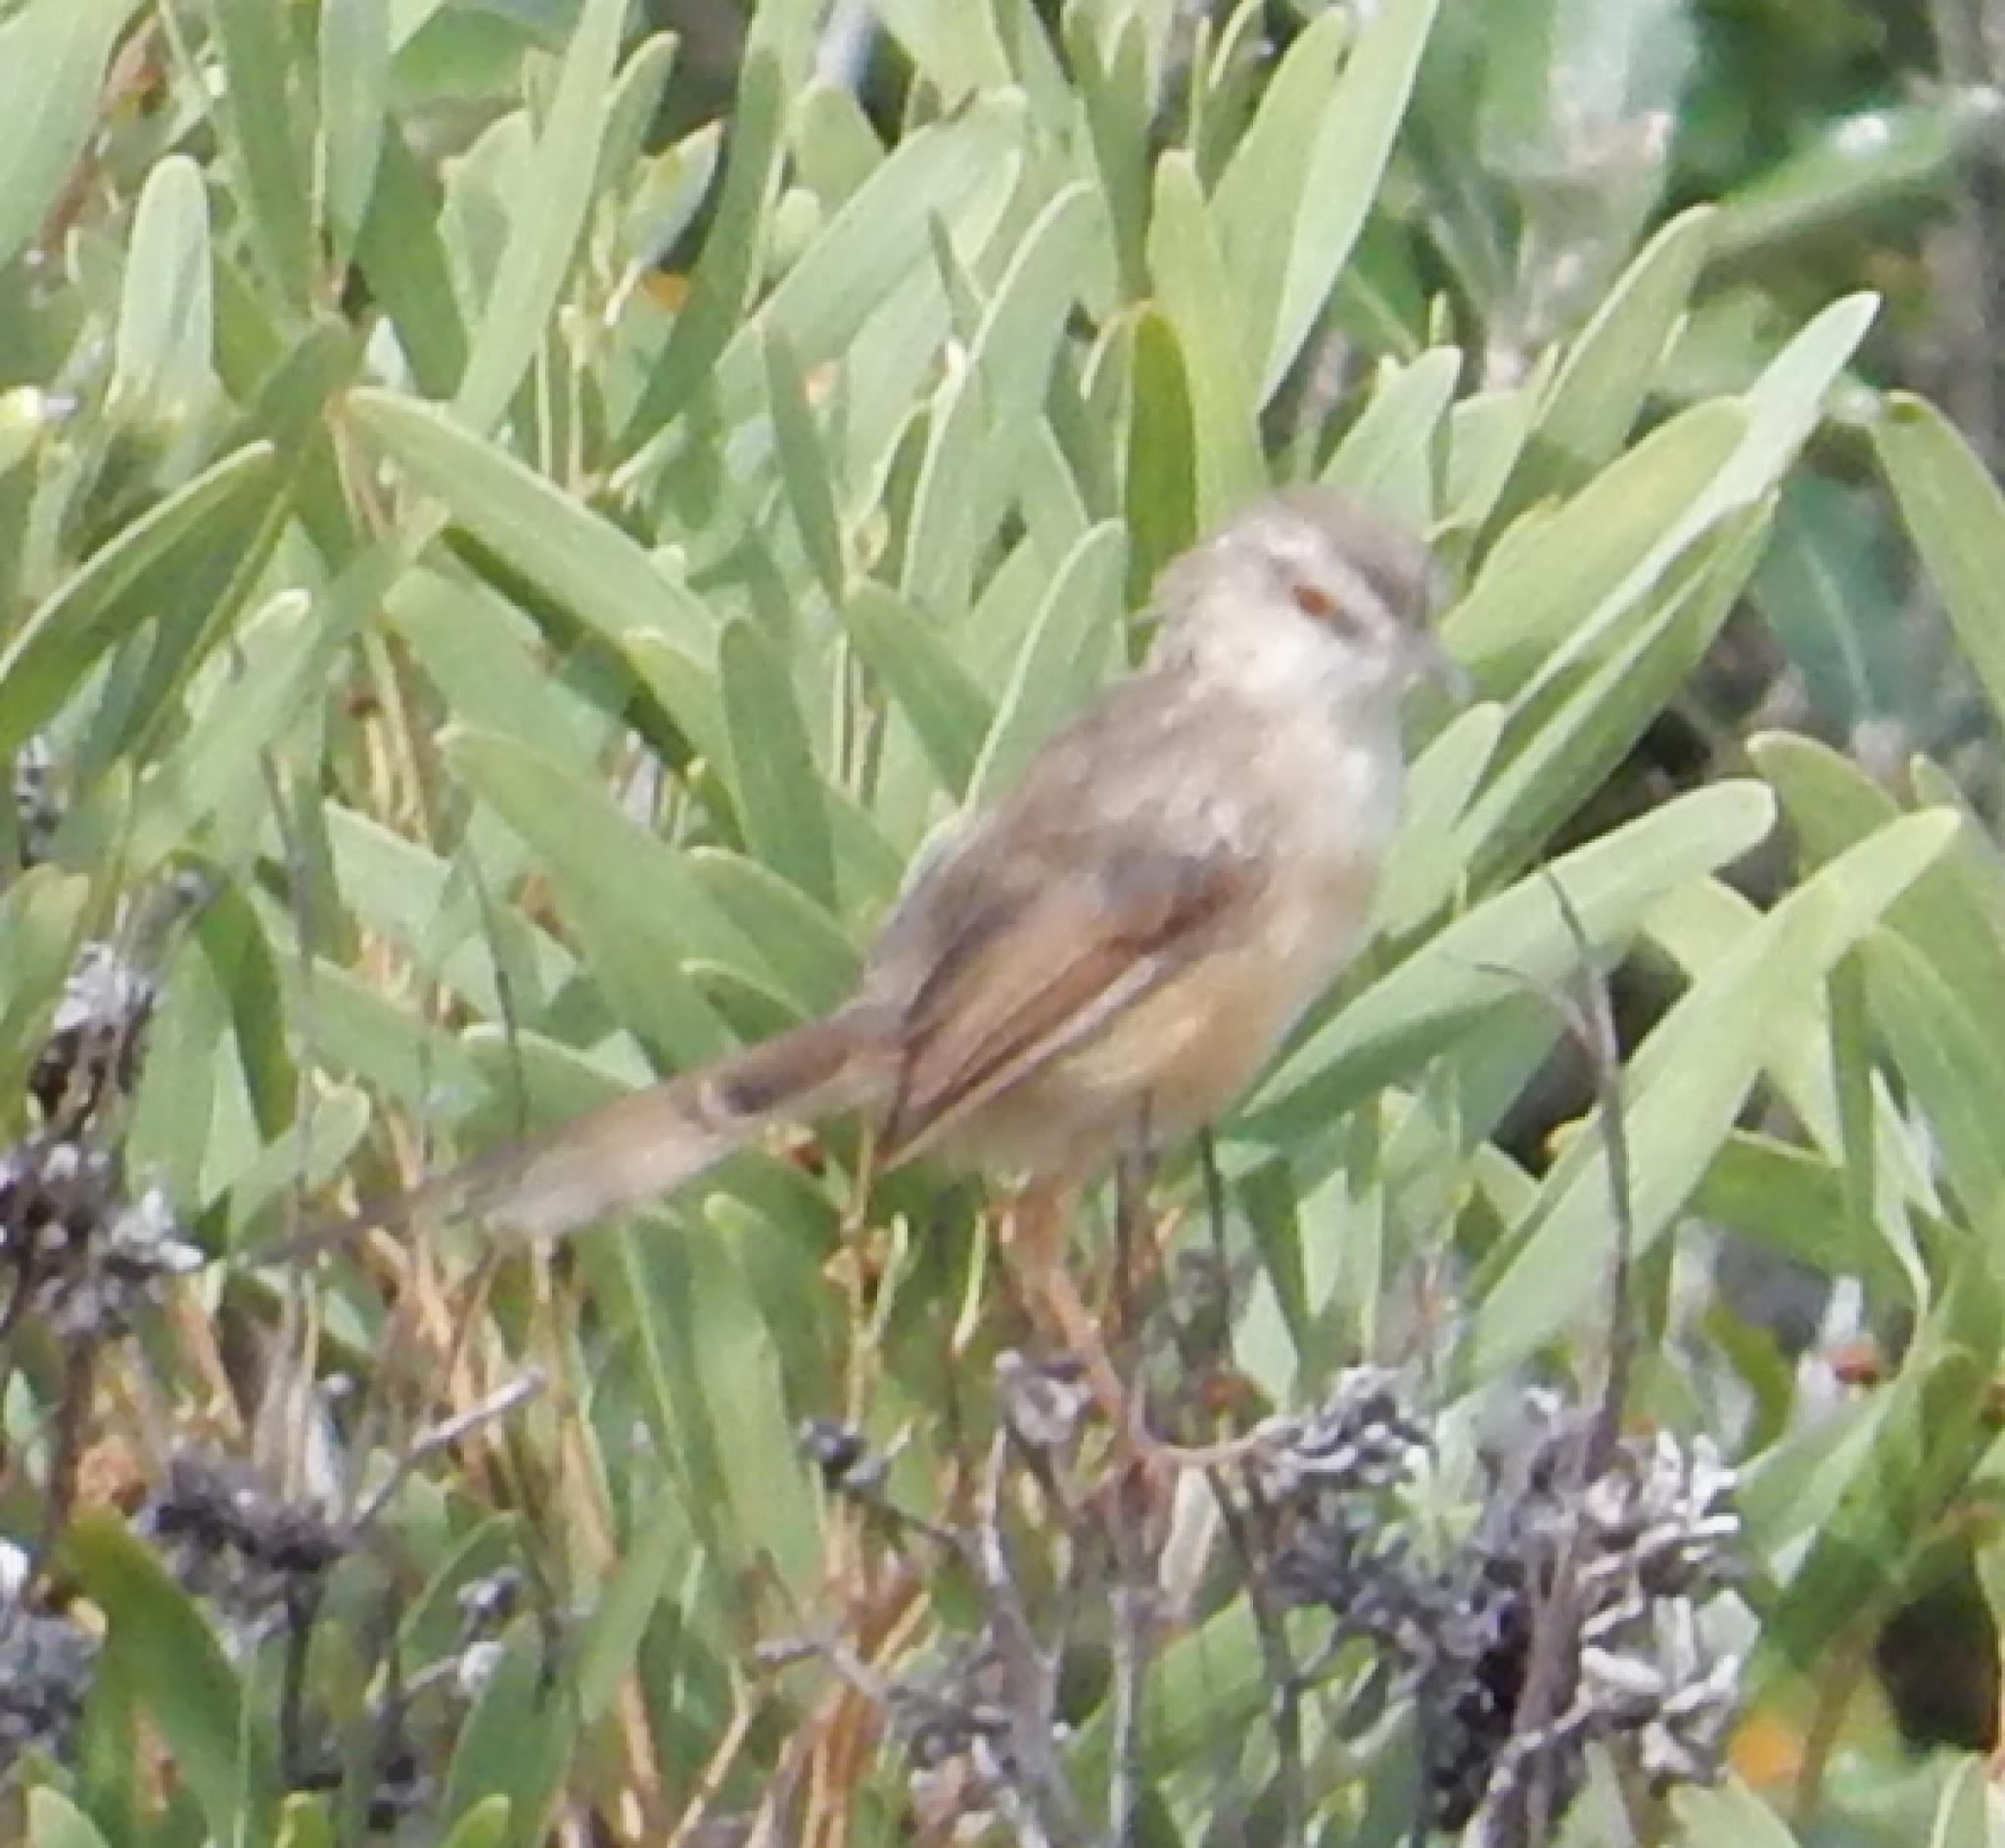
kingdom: Animalia
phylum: Chordata
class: Aves
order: Passeriformes
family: Cisticolidae
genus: Prinia
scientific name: Prinia subflava
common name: Tawny-flanked prinia
